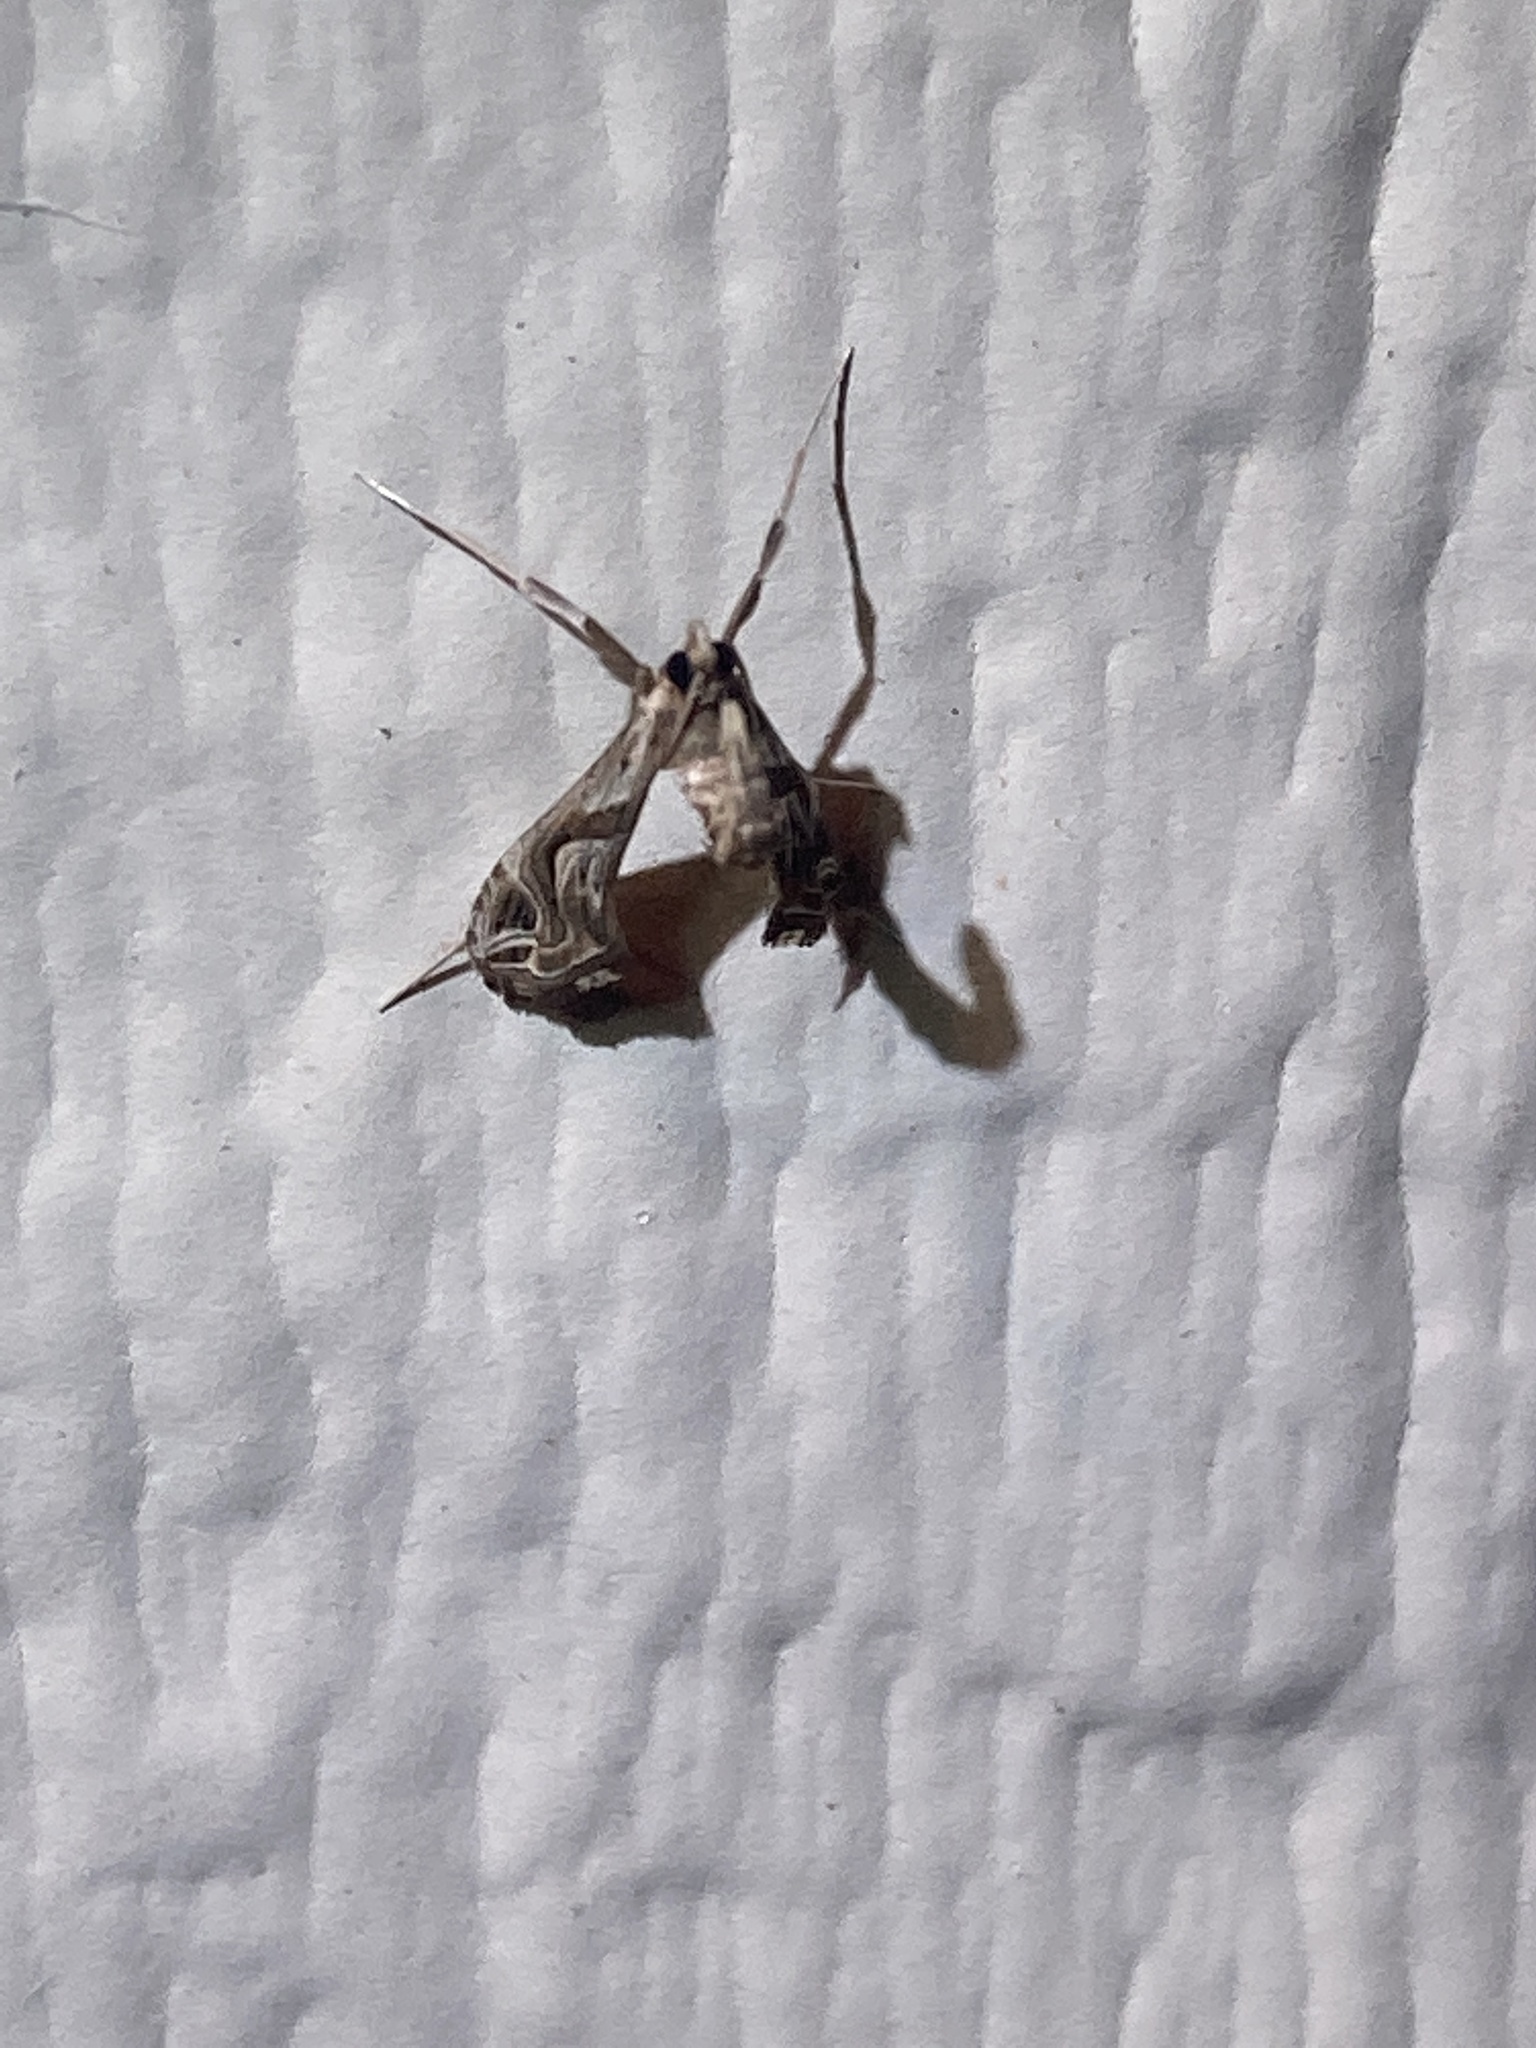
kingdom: Animalia
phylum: Arthropoda
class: Insecta
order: Lepidoptera
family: Crambidae
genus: Lineodes
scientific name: Lineodes integra
